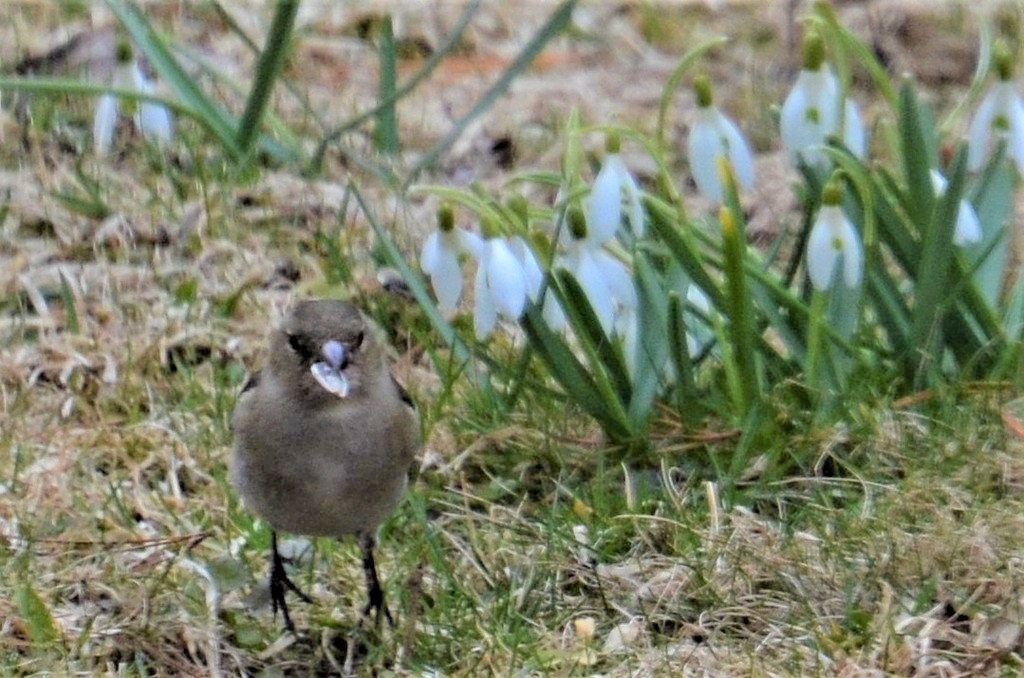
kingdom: Animalia
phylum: Chordata
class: Aves
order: Passeriformes
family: Fringillidae
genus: Fringilla
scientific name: Fringilla coelebs
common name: Common chaffinch
